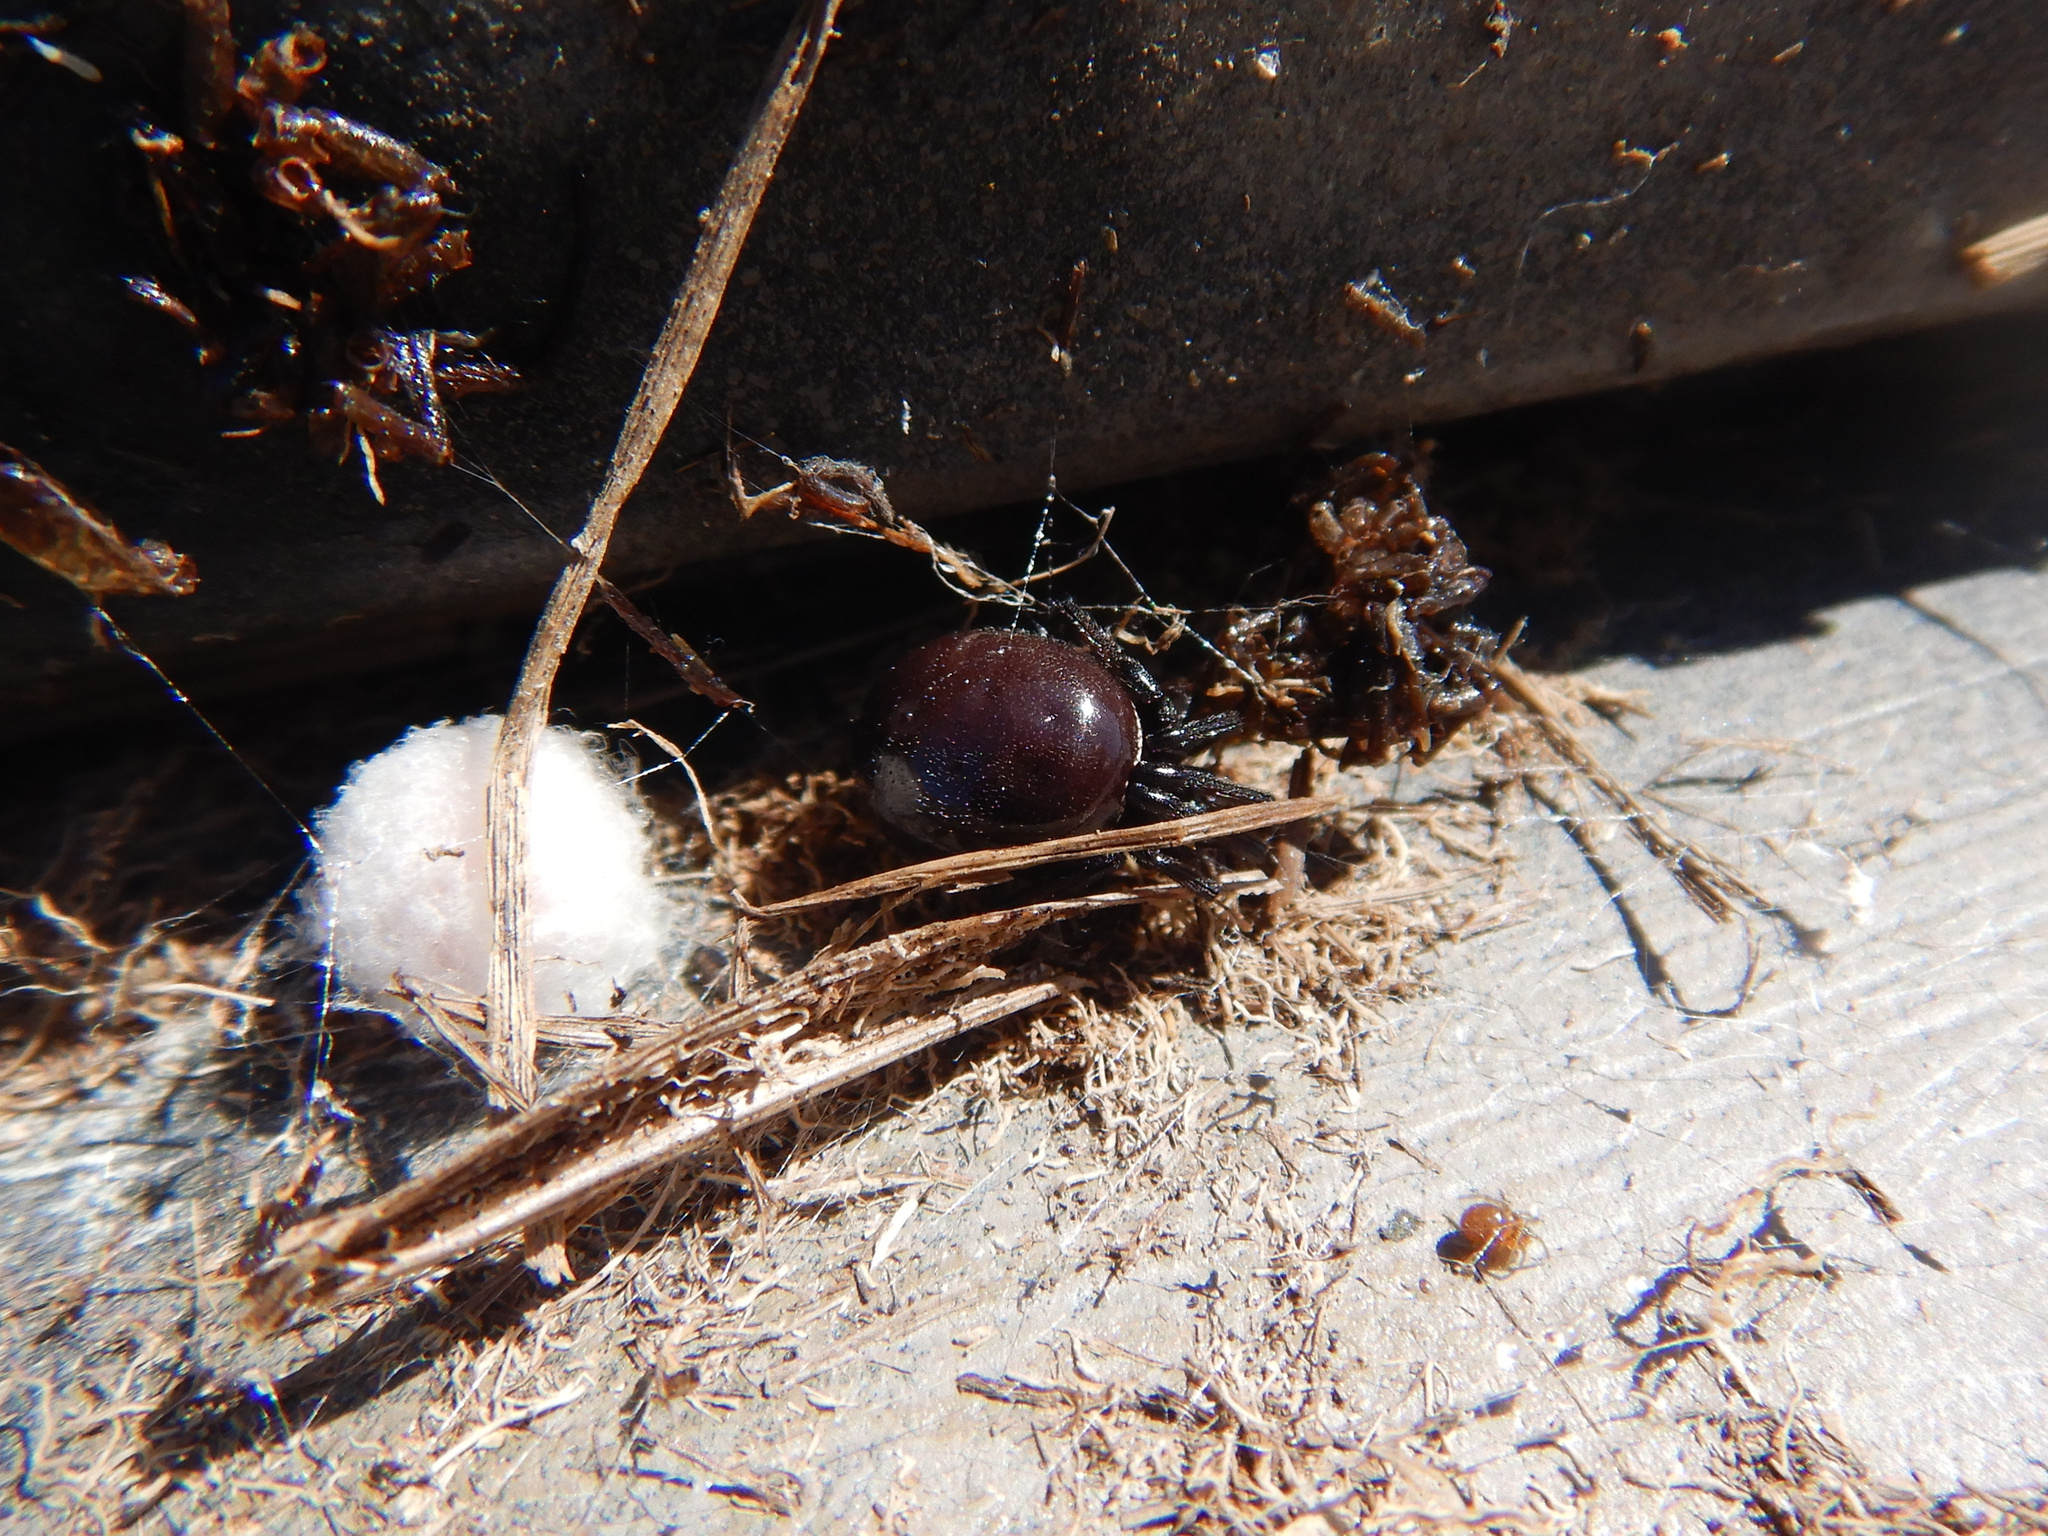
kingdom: Animalia
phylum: Arthropoda
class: Arachnida
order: Araneae
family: Theridiidae
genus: Steatoda
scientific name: Steatoda capensis
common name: Cobweb weaver
